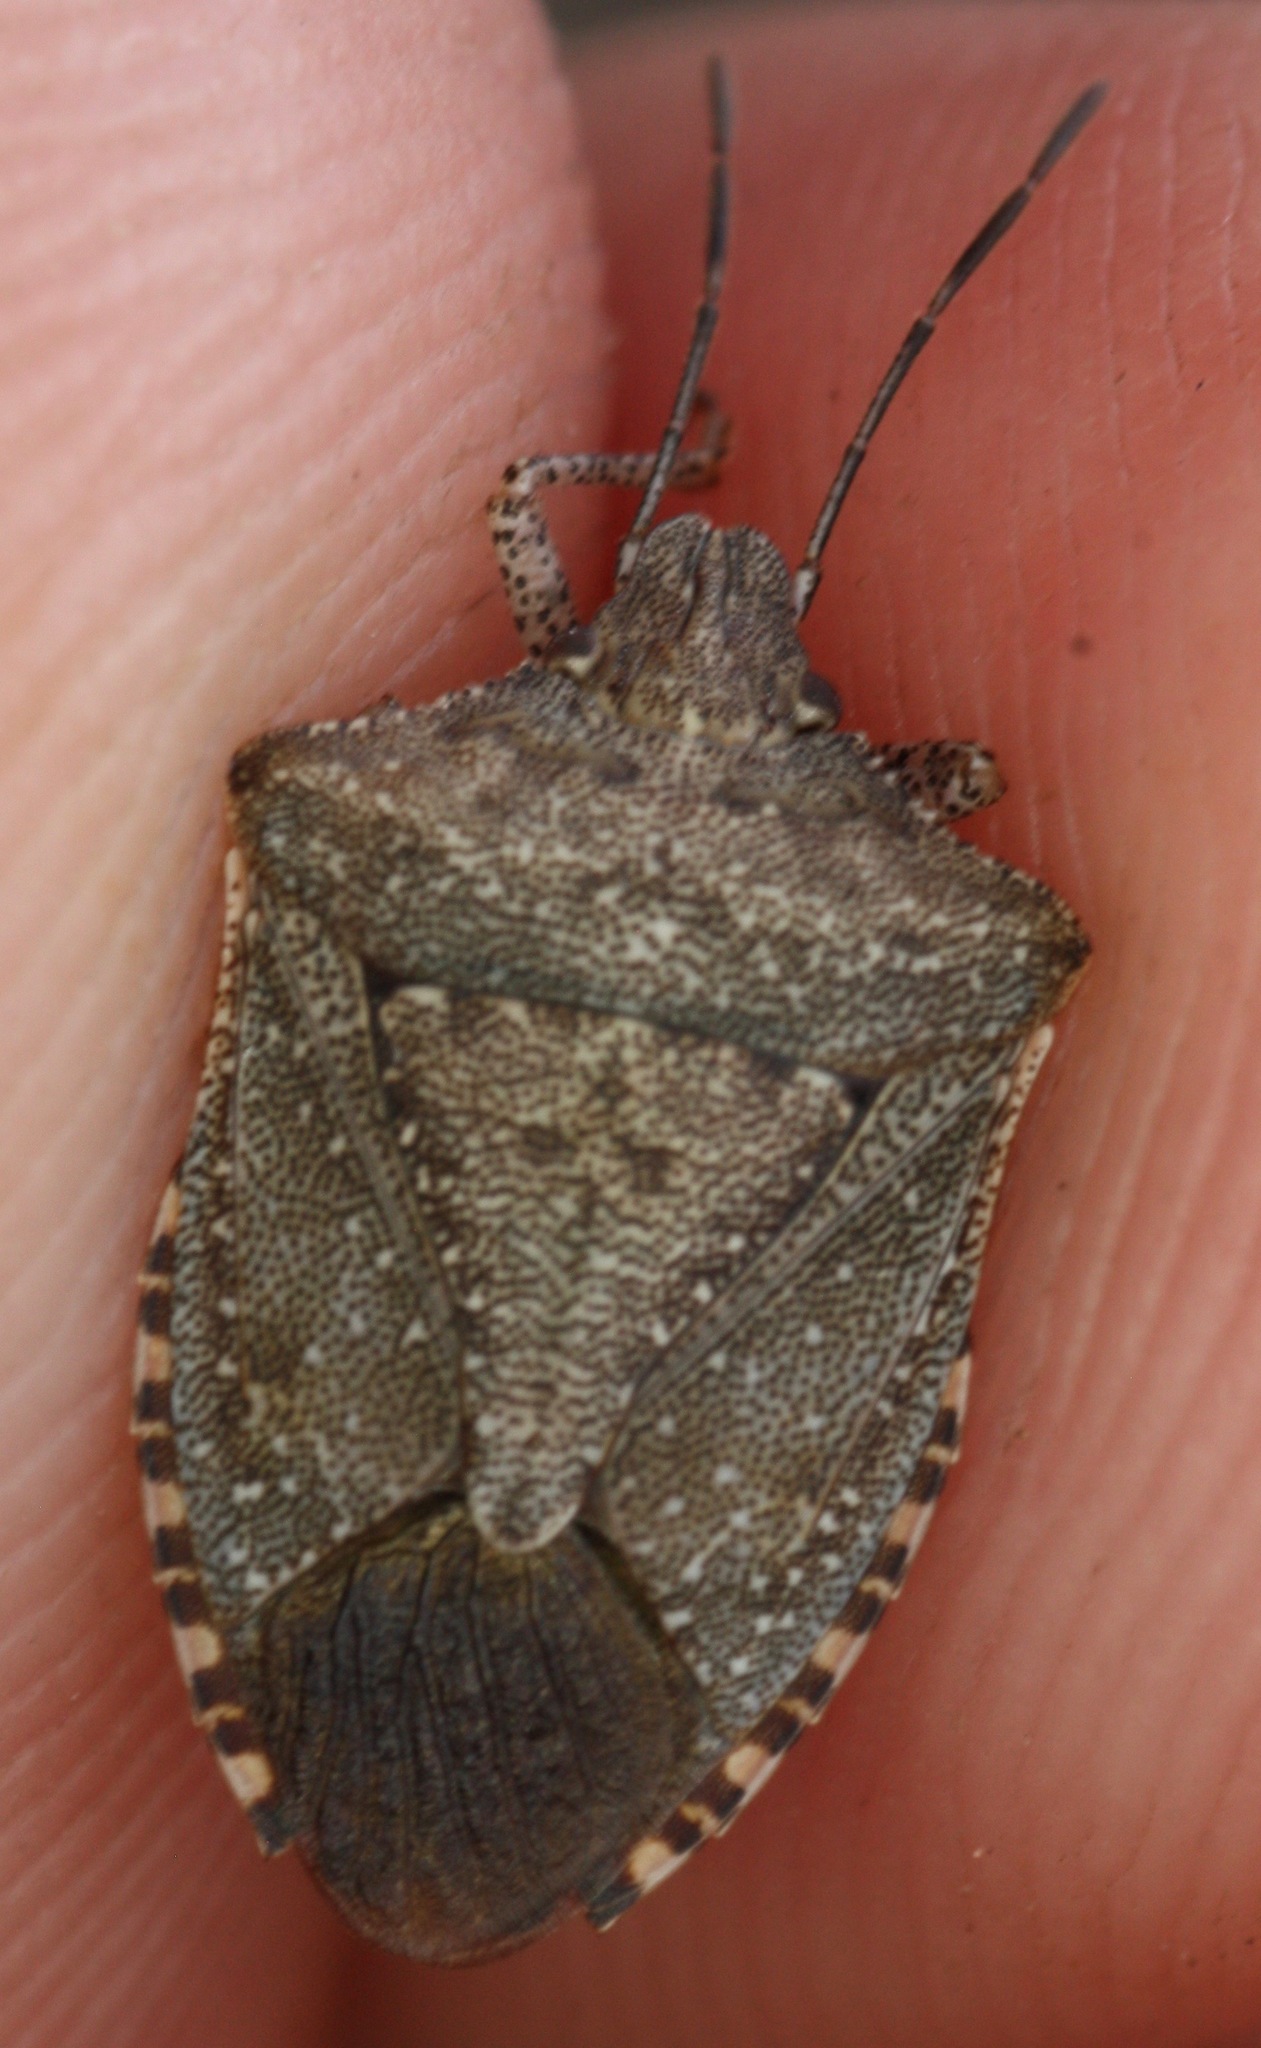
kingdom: Animalia
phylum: Arthropoda
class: Insecta
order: Hemiptera
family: Pentatomidae
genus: Euschistus
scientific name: Euschistus biformis
